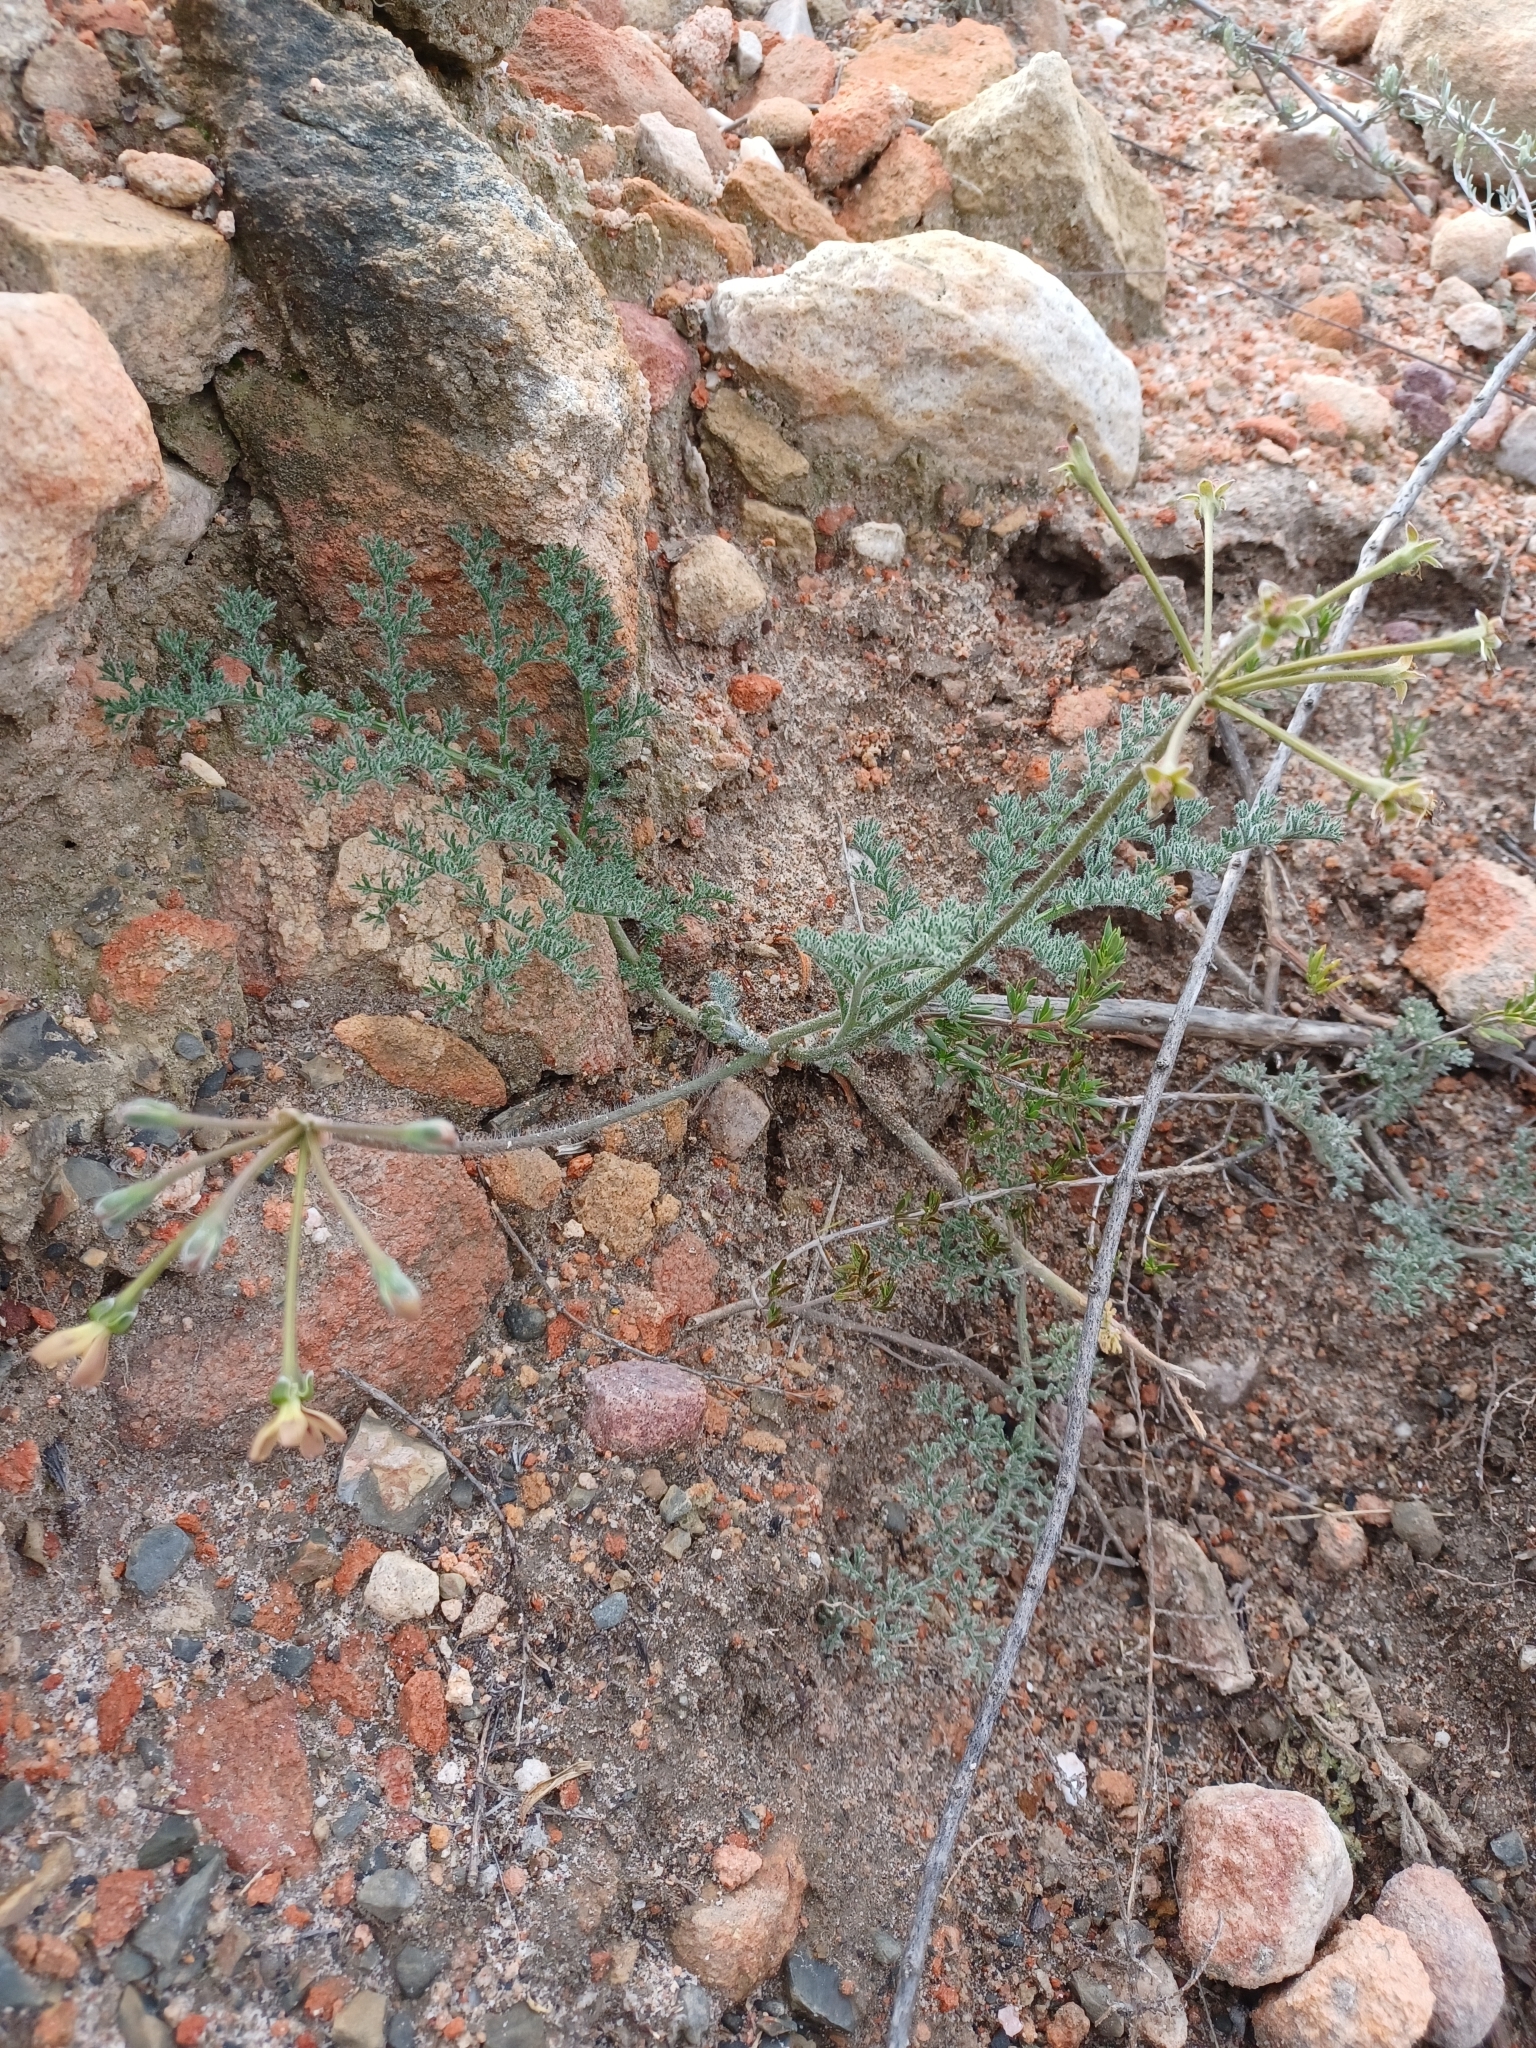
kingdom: Plantae
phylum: Tracheophyta
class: Magnoliopsida
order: Geraniales
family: Geraniaceae
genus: Pelargonium
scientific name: Pelargonium triste
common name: Night-scent pelargonium
